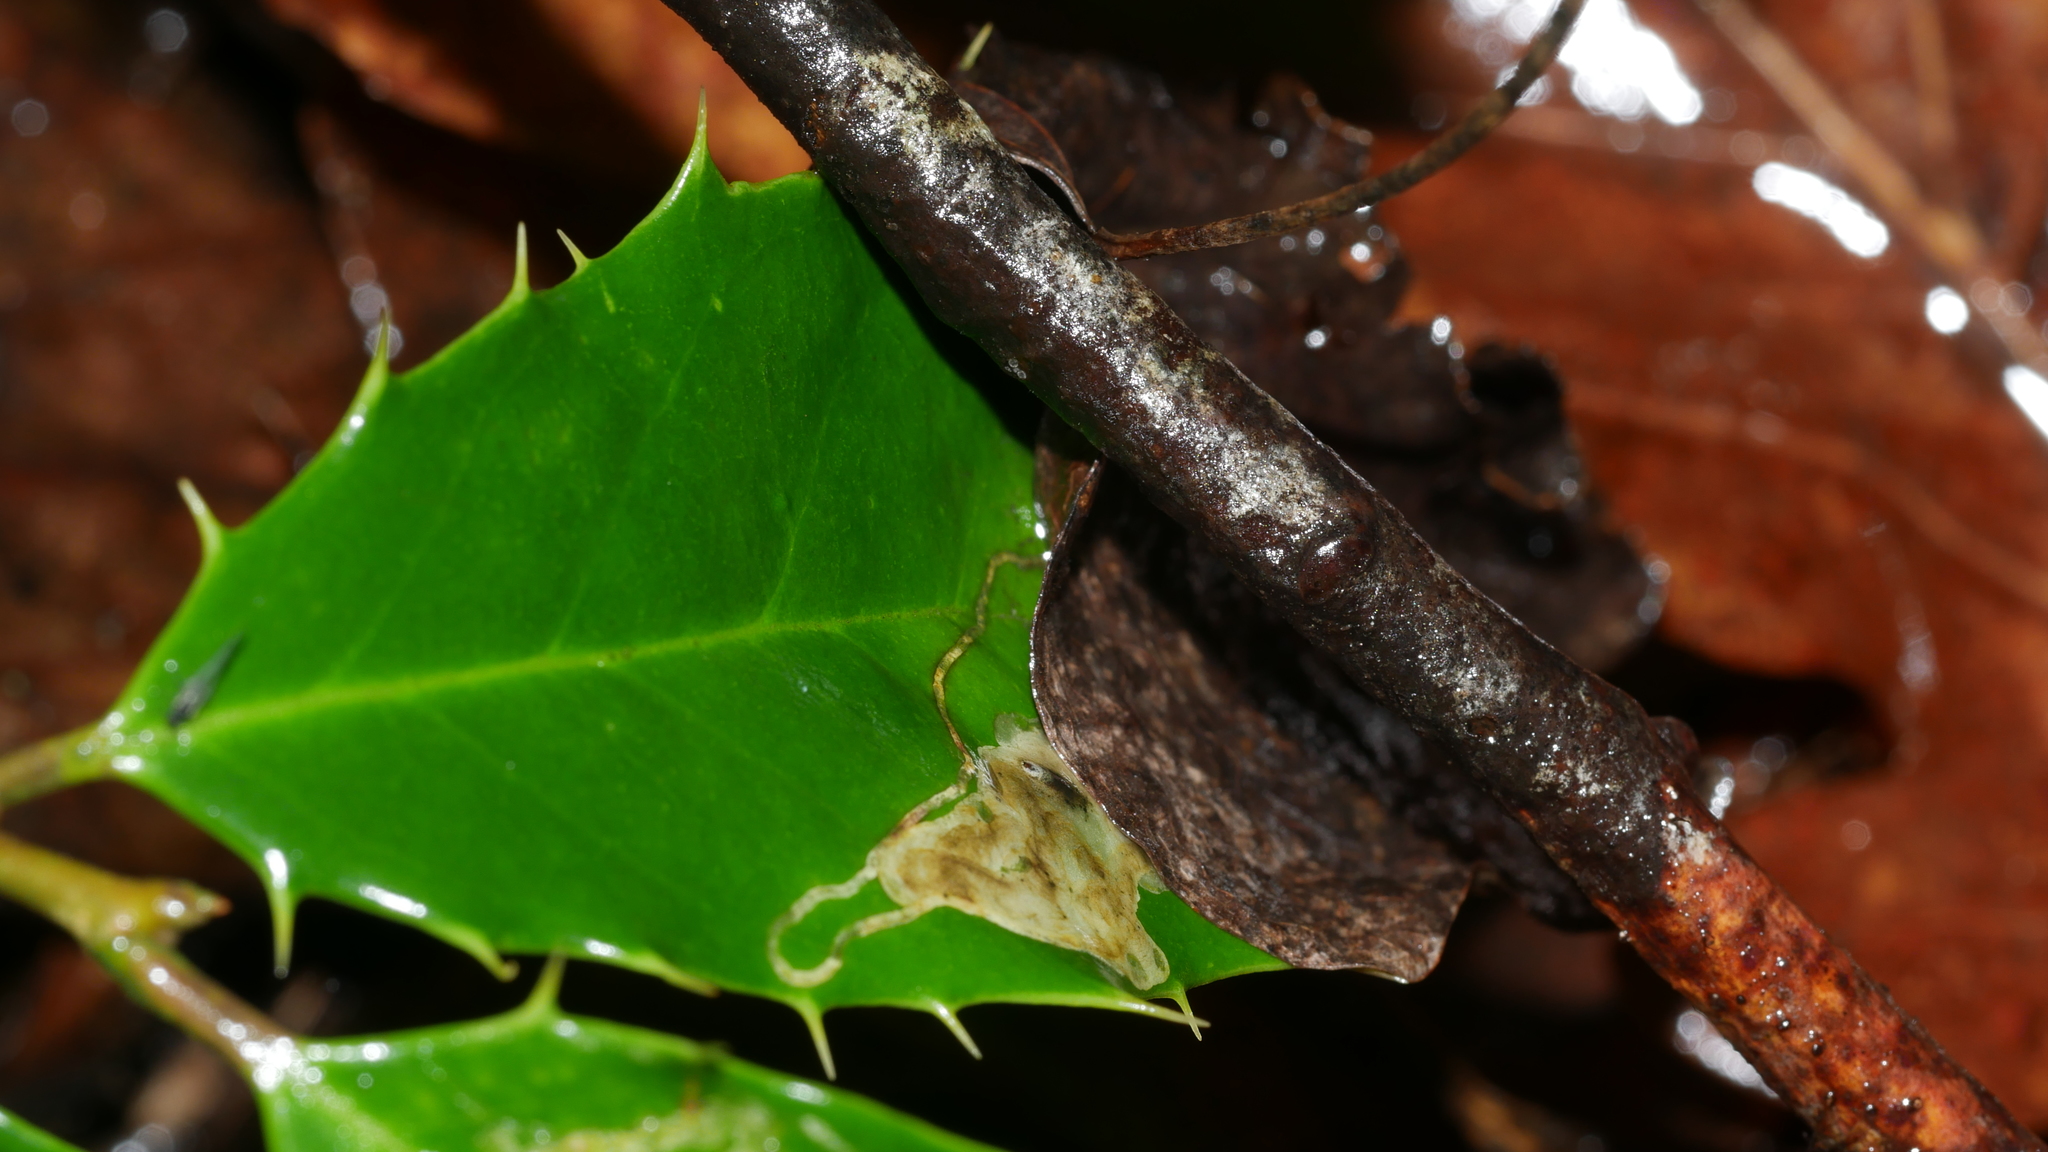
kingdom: Animalia
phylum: Arthropoda
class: Insecta
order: Diptera
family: Agromyzidae
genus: Phytomyza
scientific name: Phytomyza
